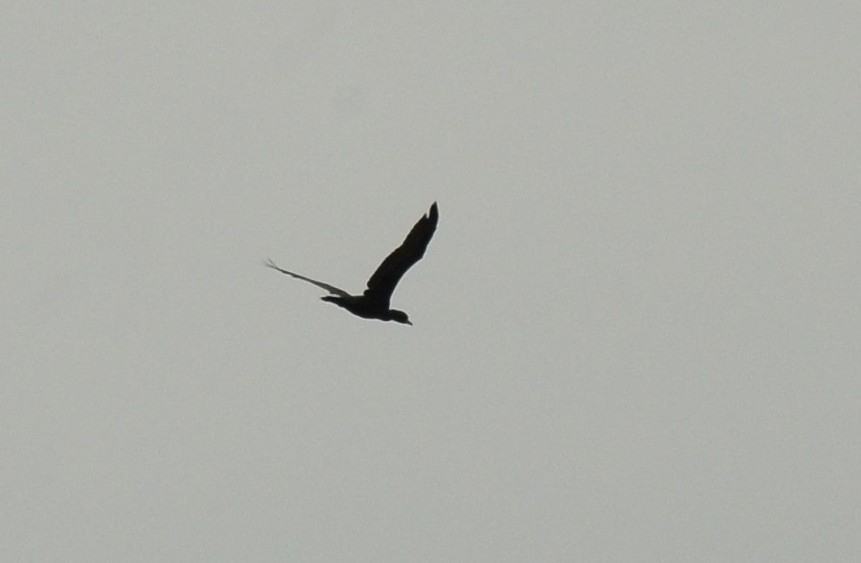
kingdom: Animalia
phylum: Chordata
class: Aves
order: Suliformes
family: Phalacrocoracidae
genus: Microcarbo
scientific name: Microcarbo niger
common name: Little cormorant
